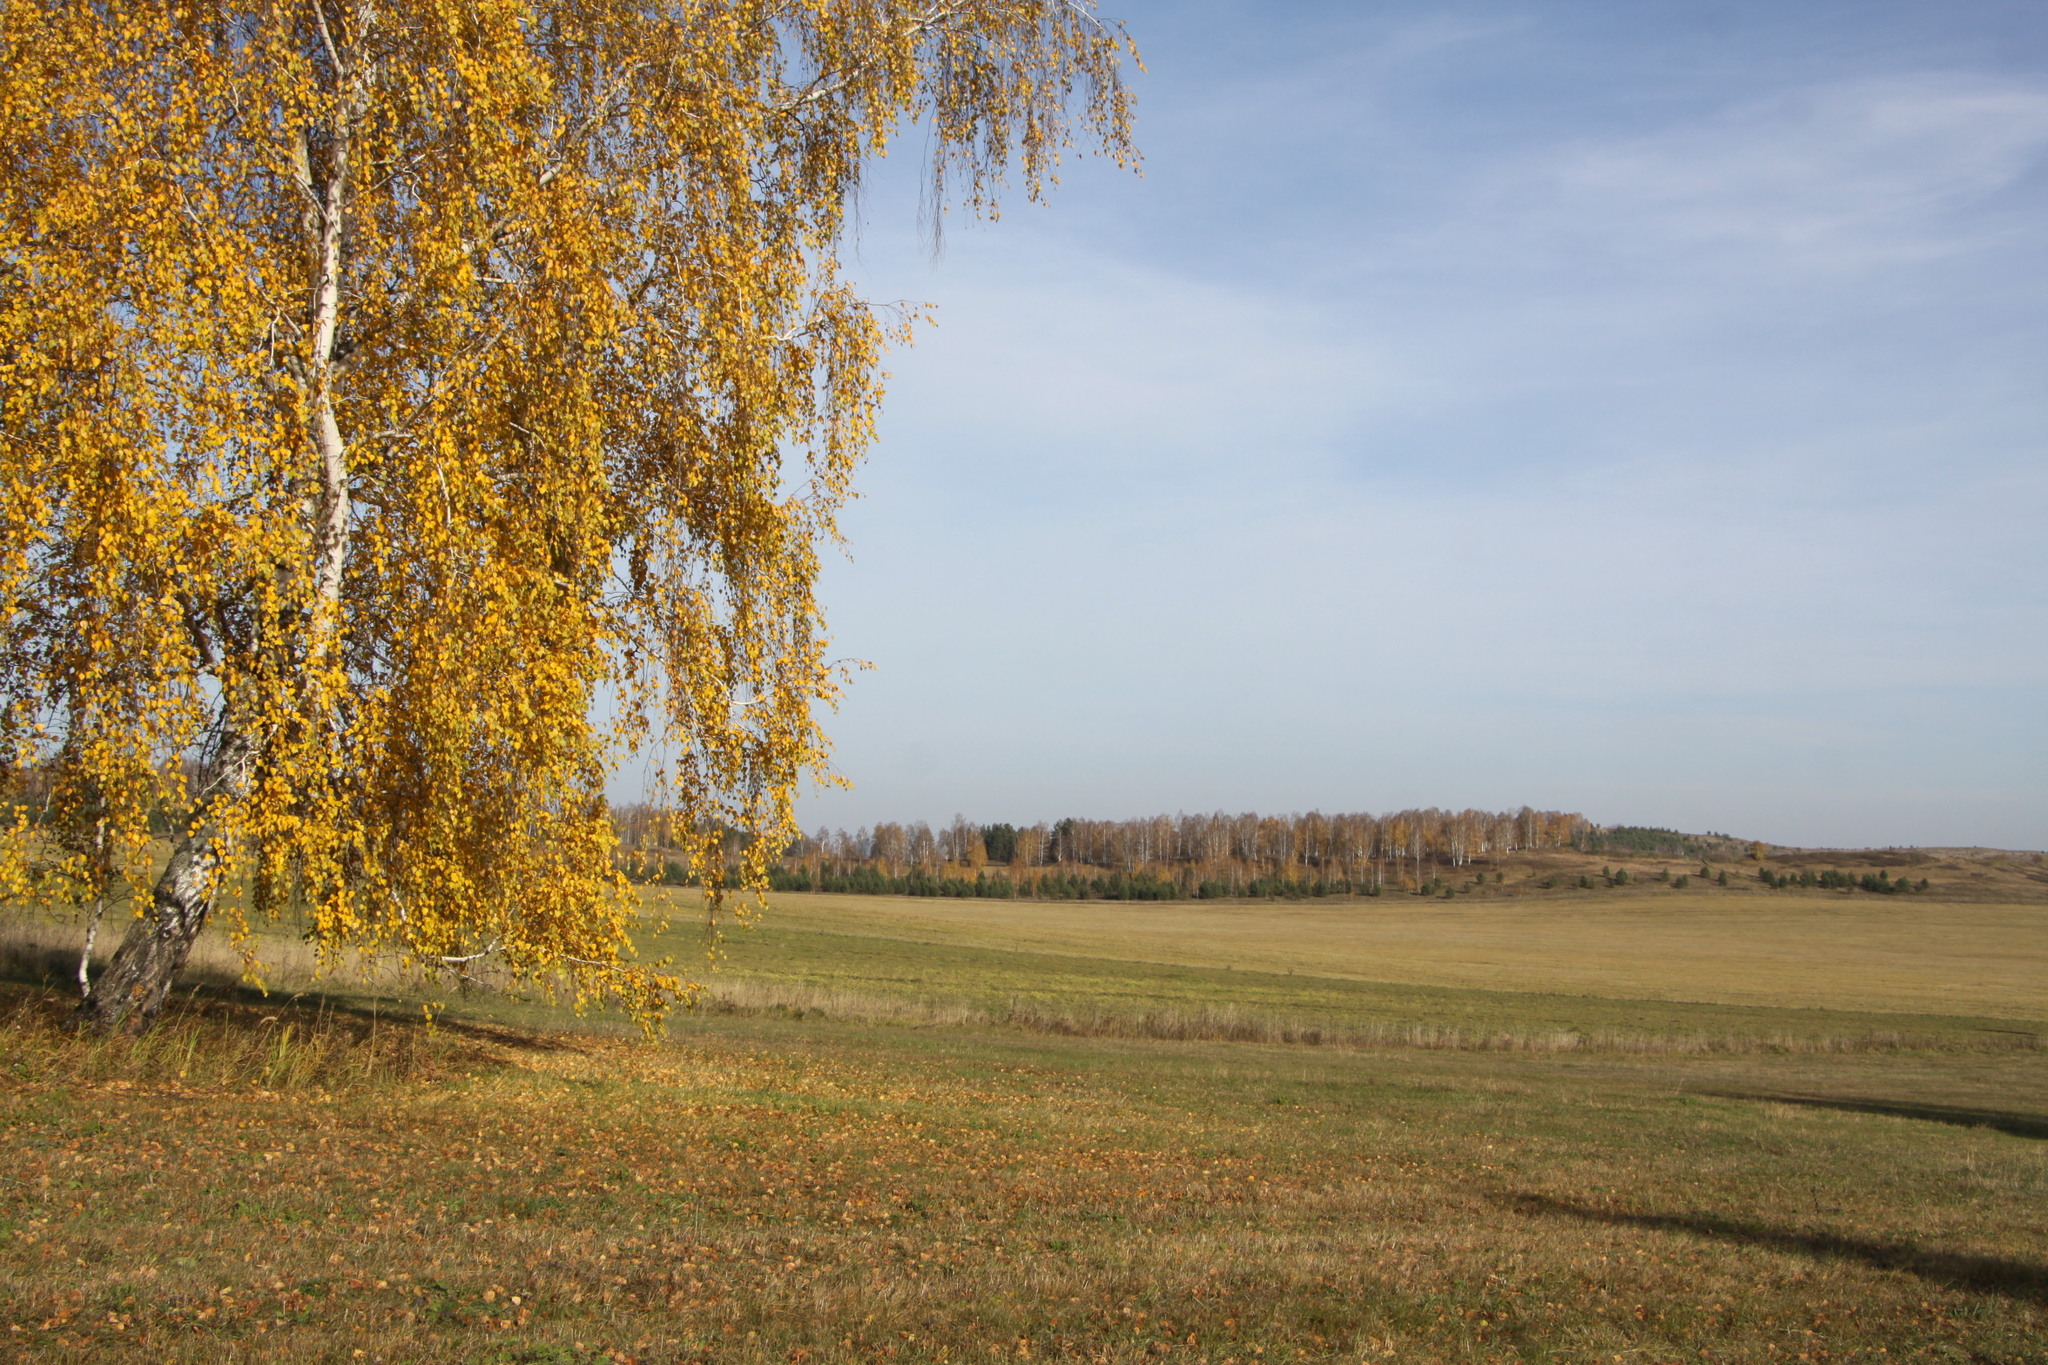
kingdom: Plantae
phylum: Tracheophyta
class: Magnoliopsida
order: Fagales
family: Betulaceae
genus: Betula
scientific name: Betula pendula
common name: Silver birch
